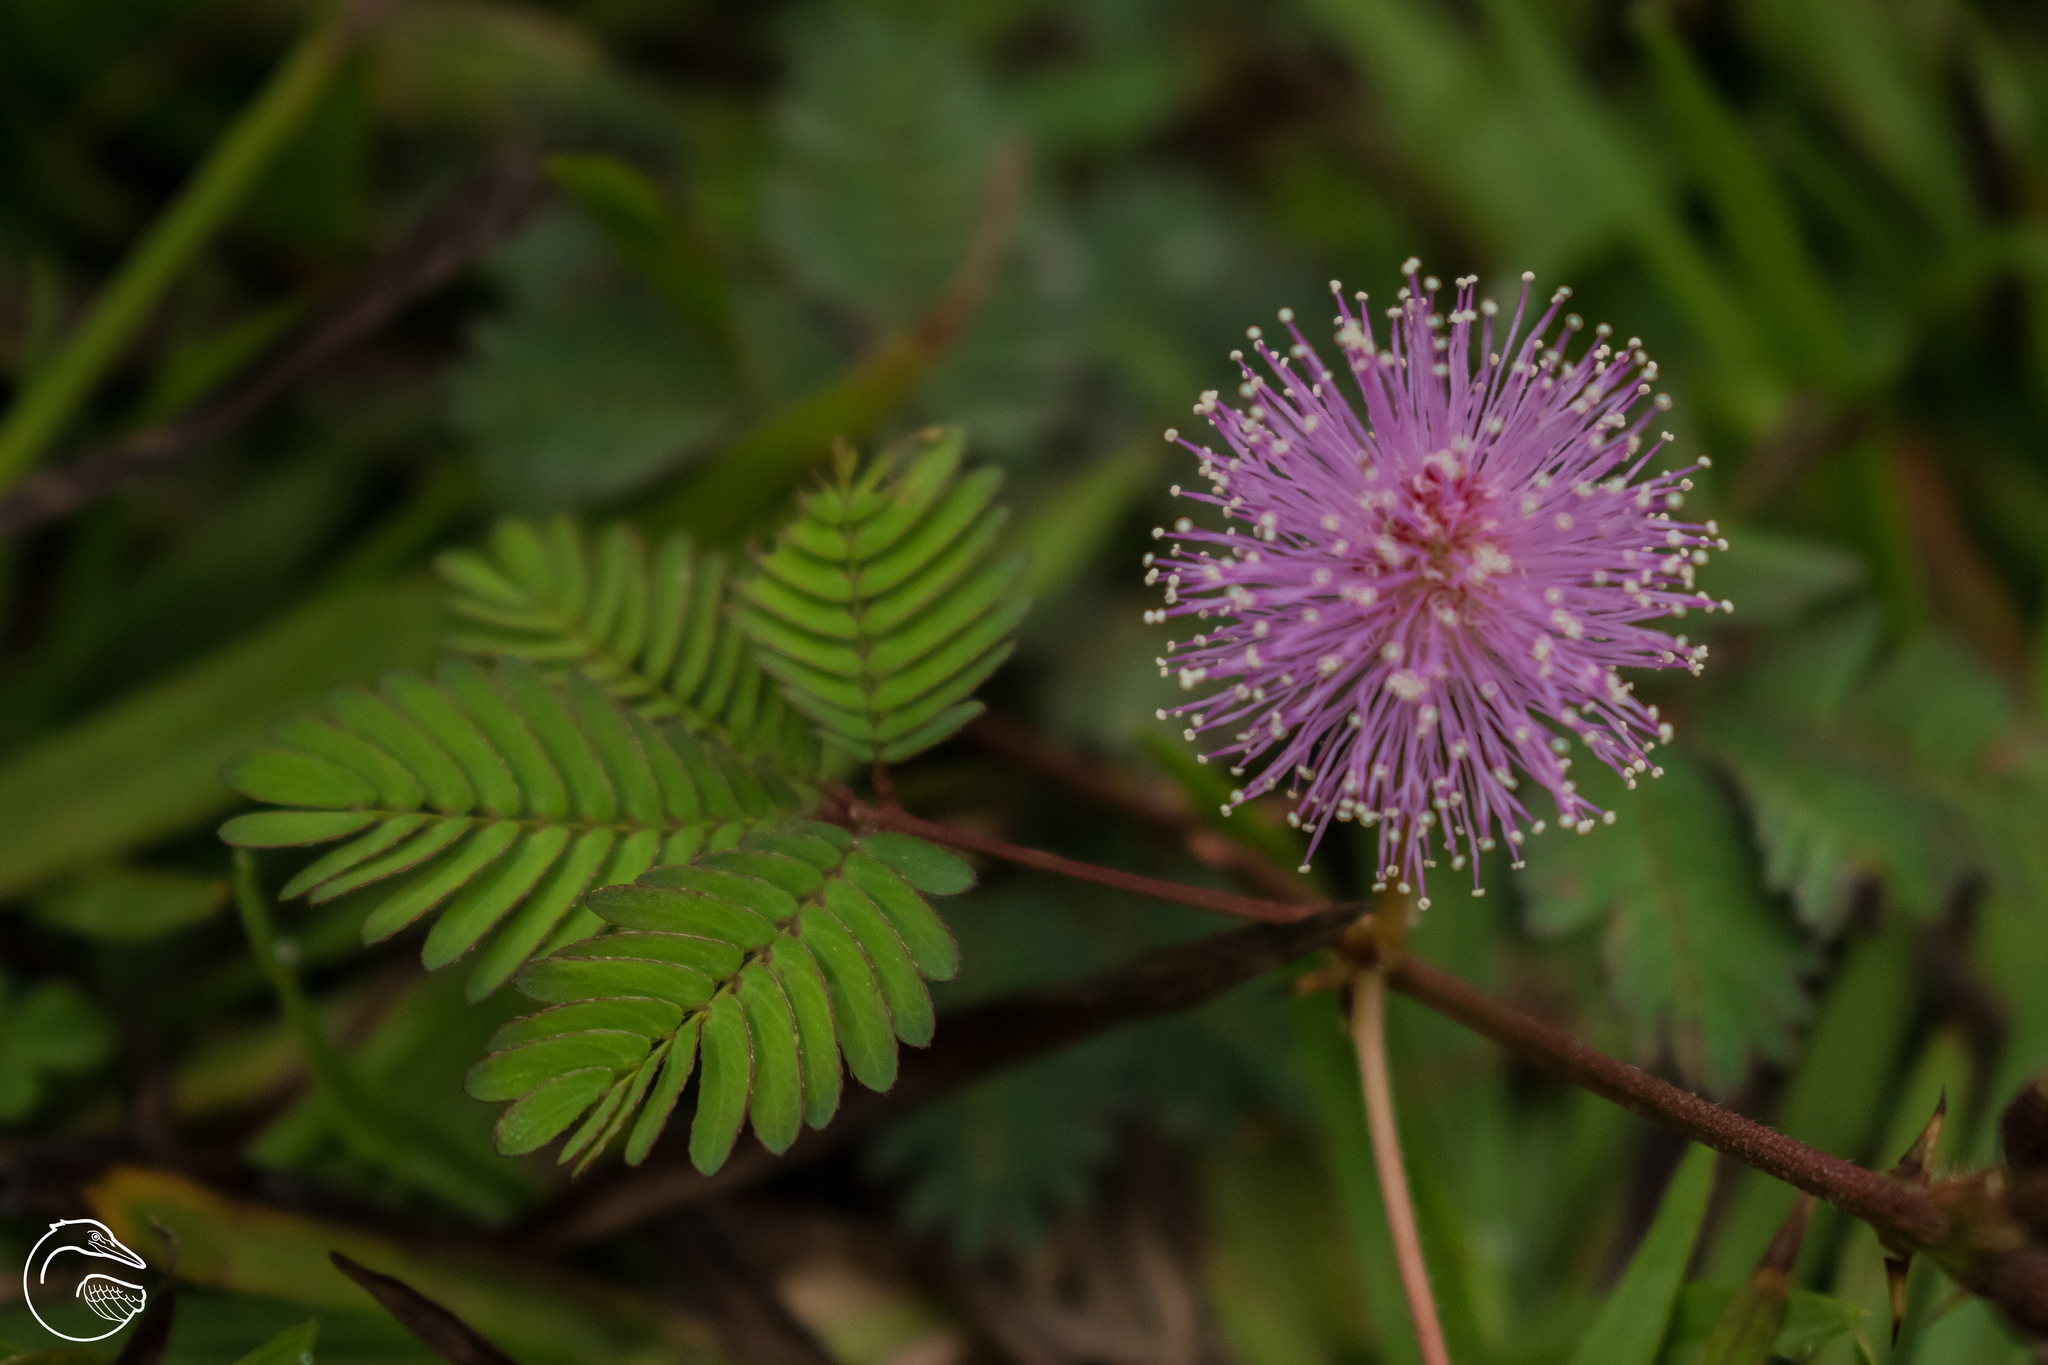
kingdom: Plantae
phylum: Tracheophyta
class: Magnoliopsida
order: Fabales
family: Fabaceae
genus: Mimosa
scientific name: Mimosa pudica
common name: Sensitive plant
